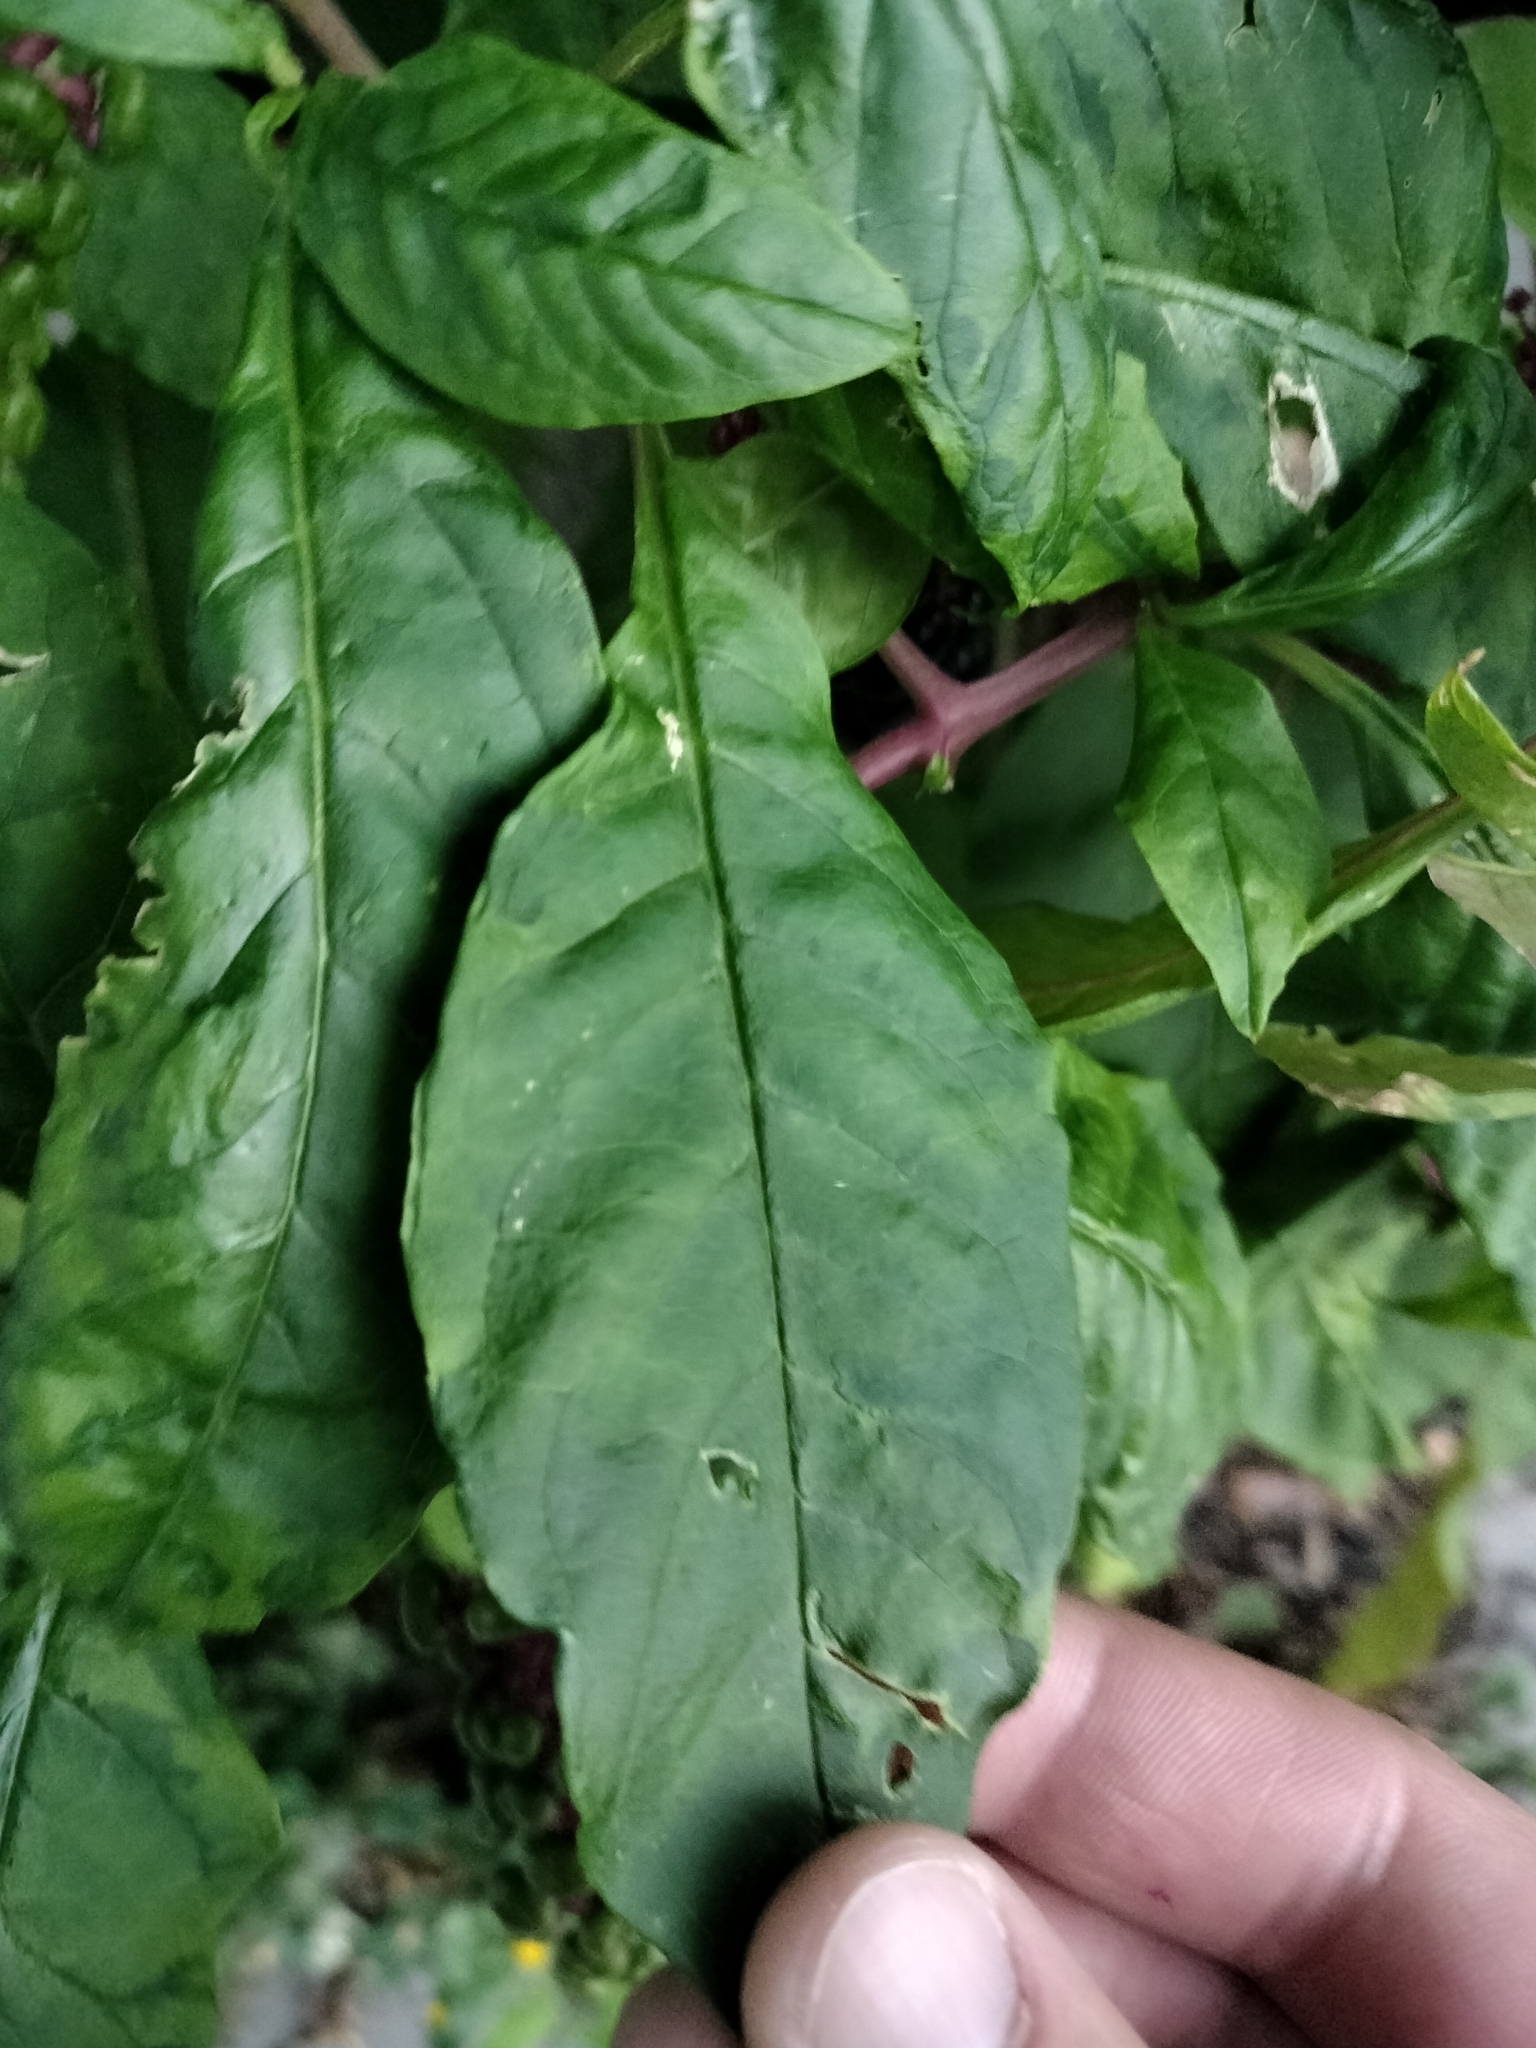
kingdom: Plantae
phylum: Tracheophyta
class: Magnoliopsida
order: Caryophyllales
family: Phytolaccaceae
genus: Phytolacca
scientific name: Phytolacca americana
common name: American pokeweed
